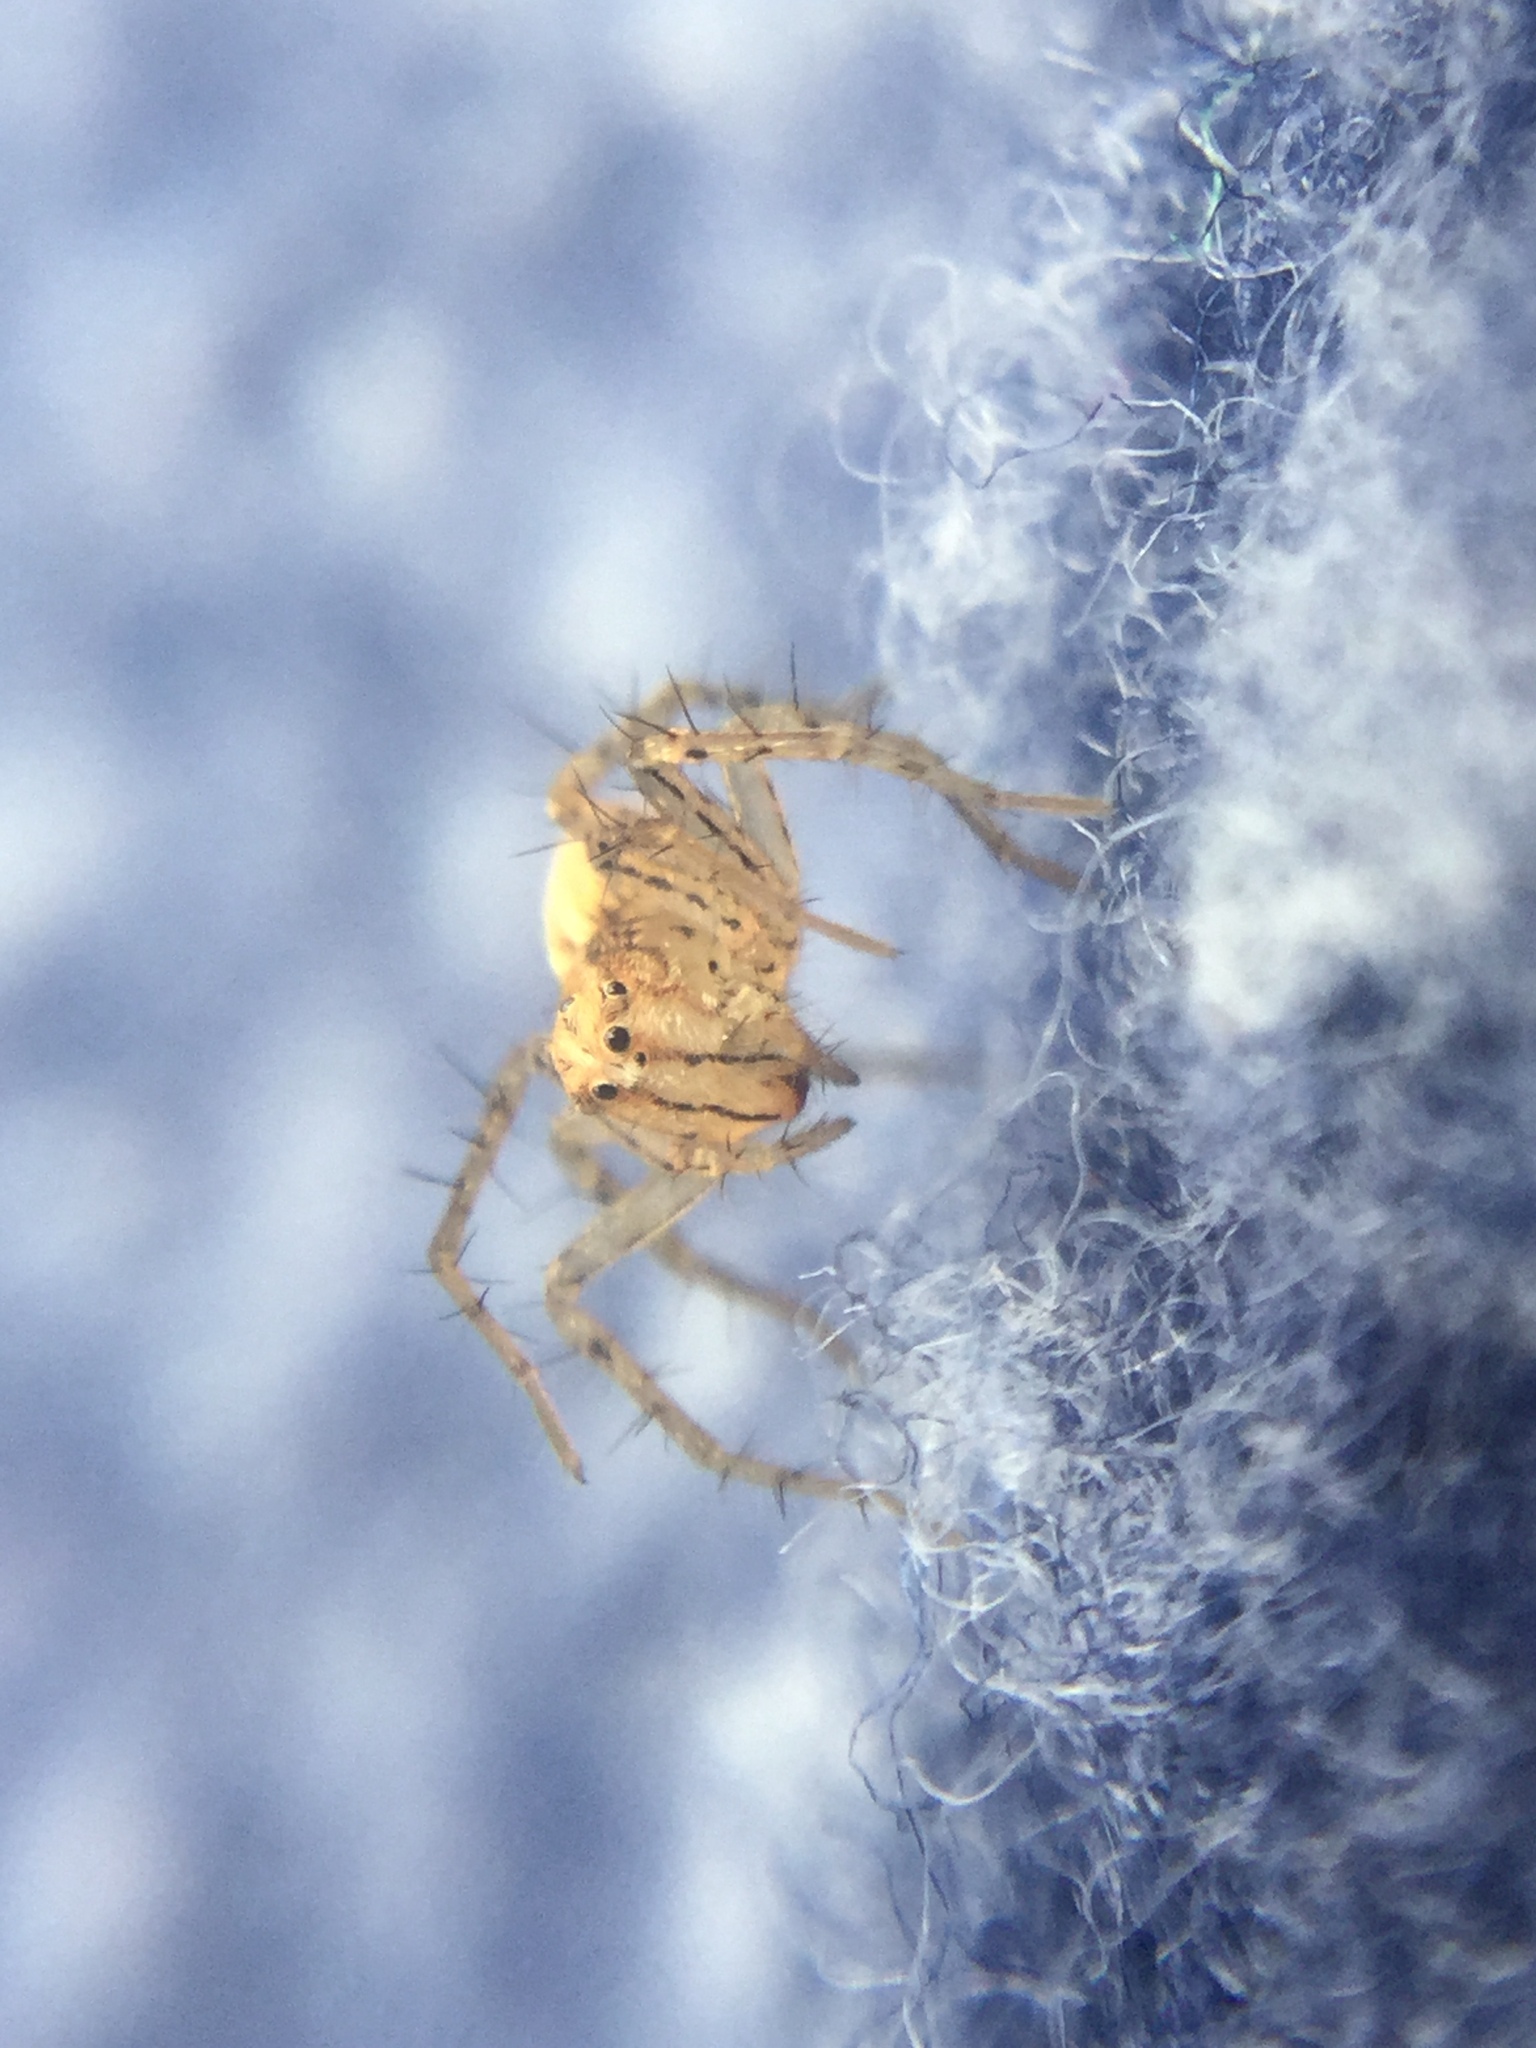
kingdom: Animalia
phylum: Arthropoda
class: Arachnida
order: Araneae
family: Oxyopidae
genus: Oxyopes
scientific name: Oxyopes aglossus
